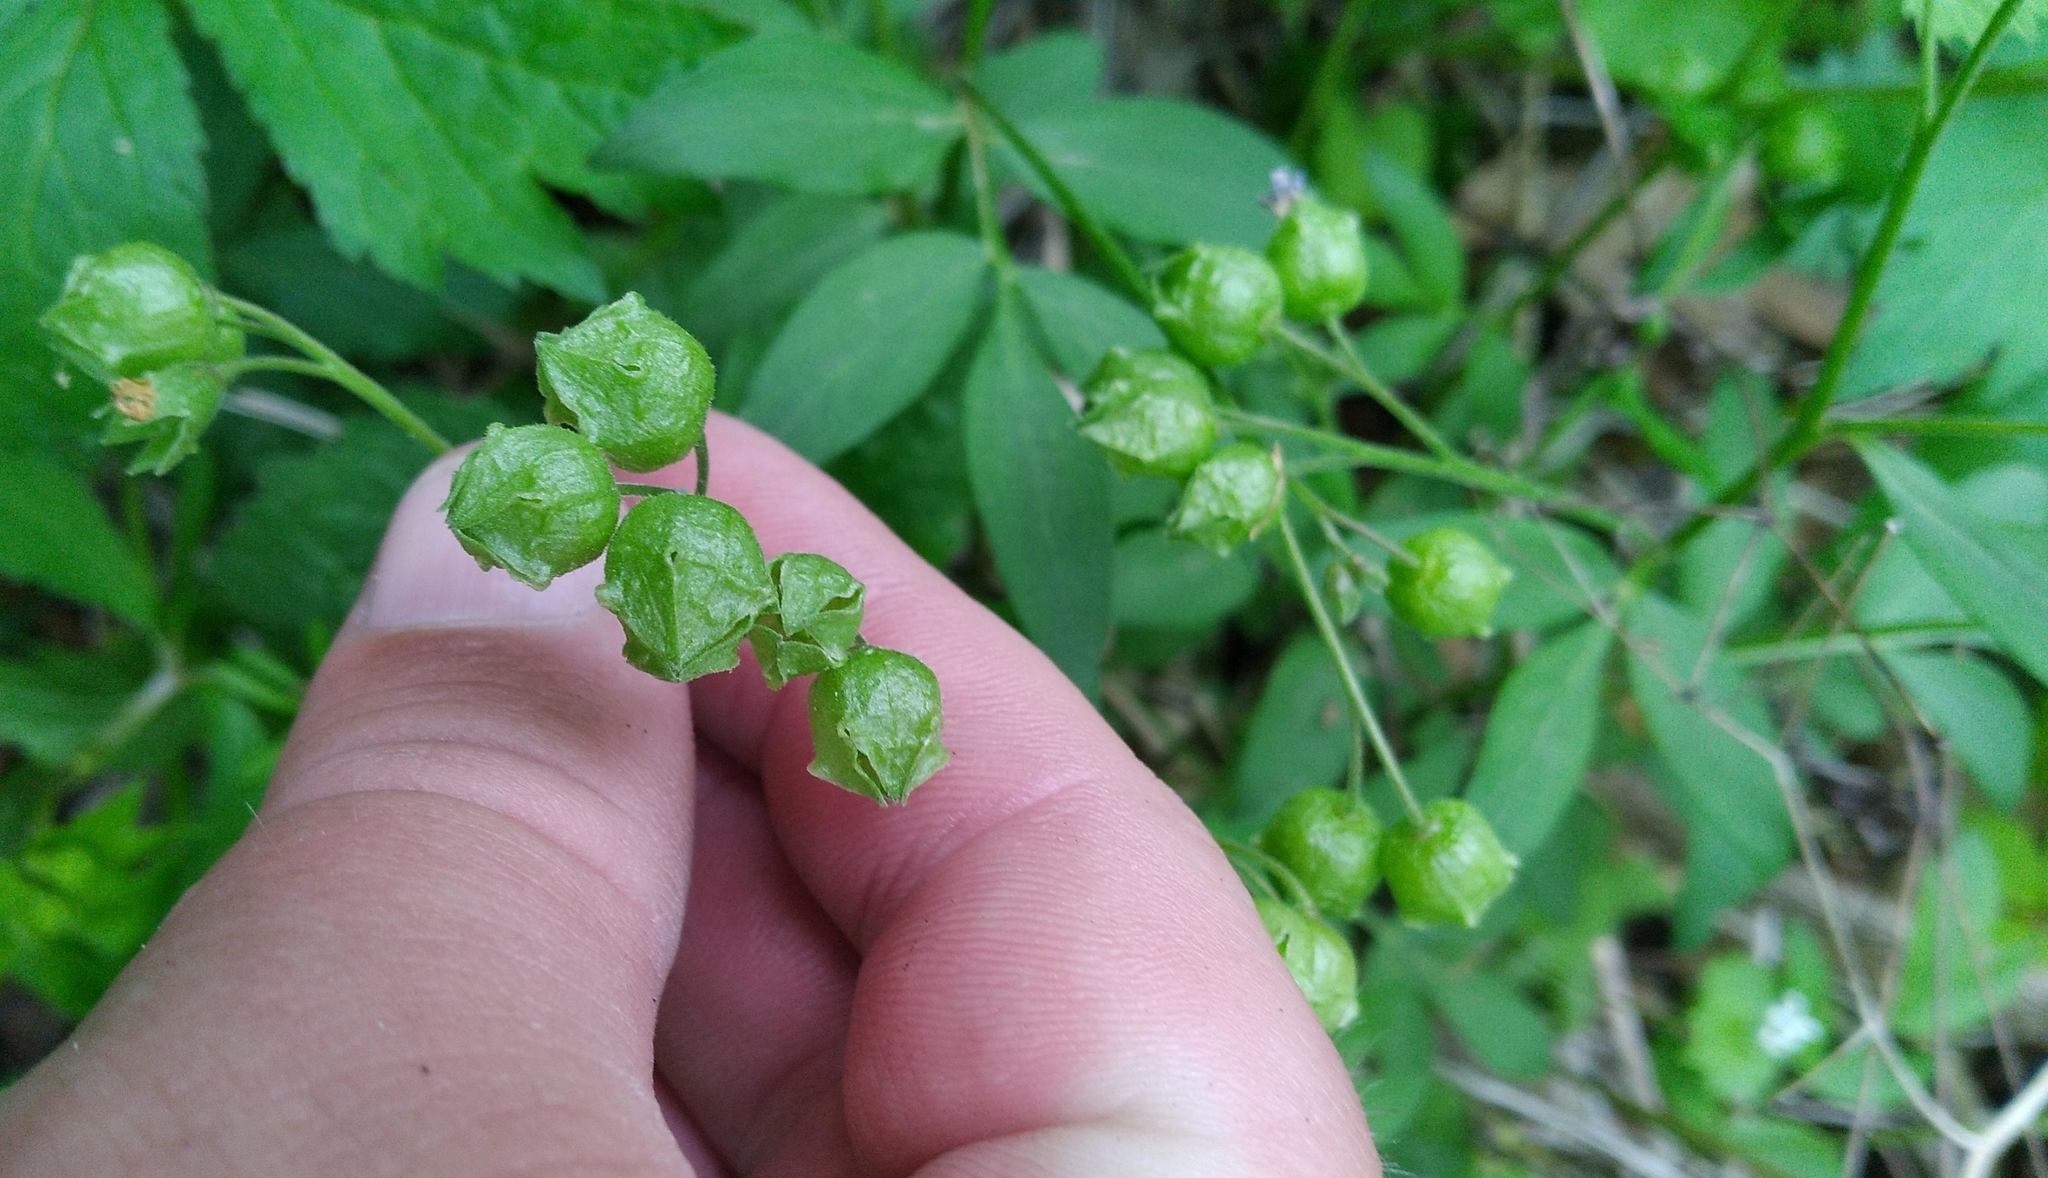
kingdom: Plantae
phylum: Tracheophyta
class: Magnoliopsida
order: Ericales
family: Polemoniaceae
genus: Polemonium
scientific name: Polemonium reptans
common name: Creeping jacob's-ladder
